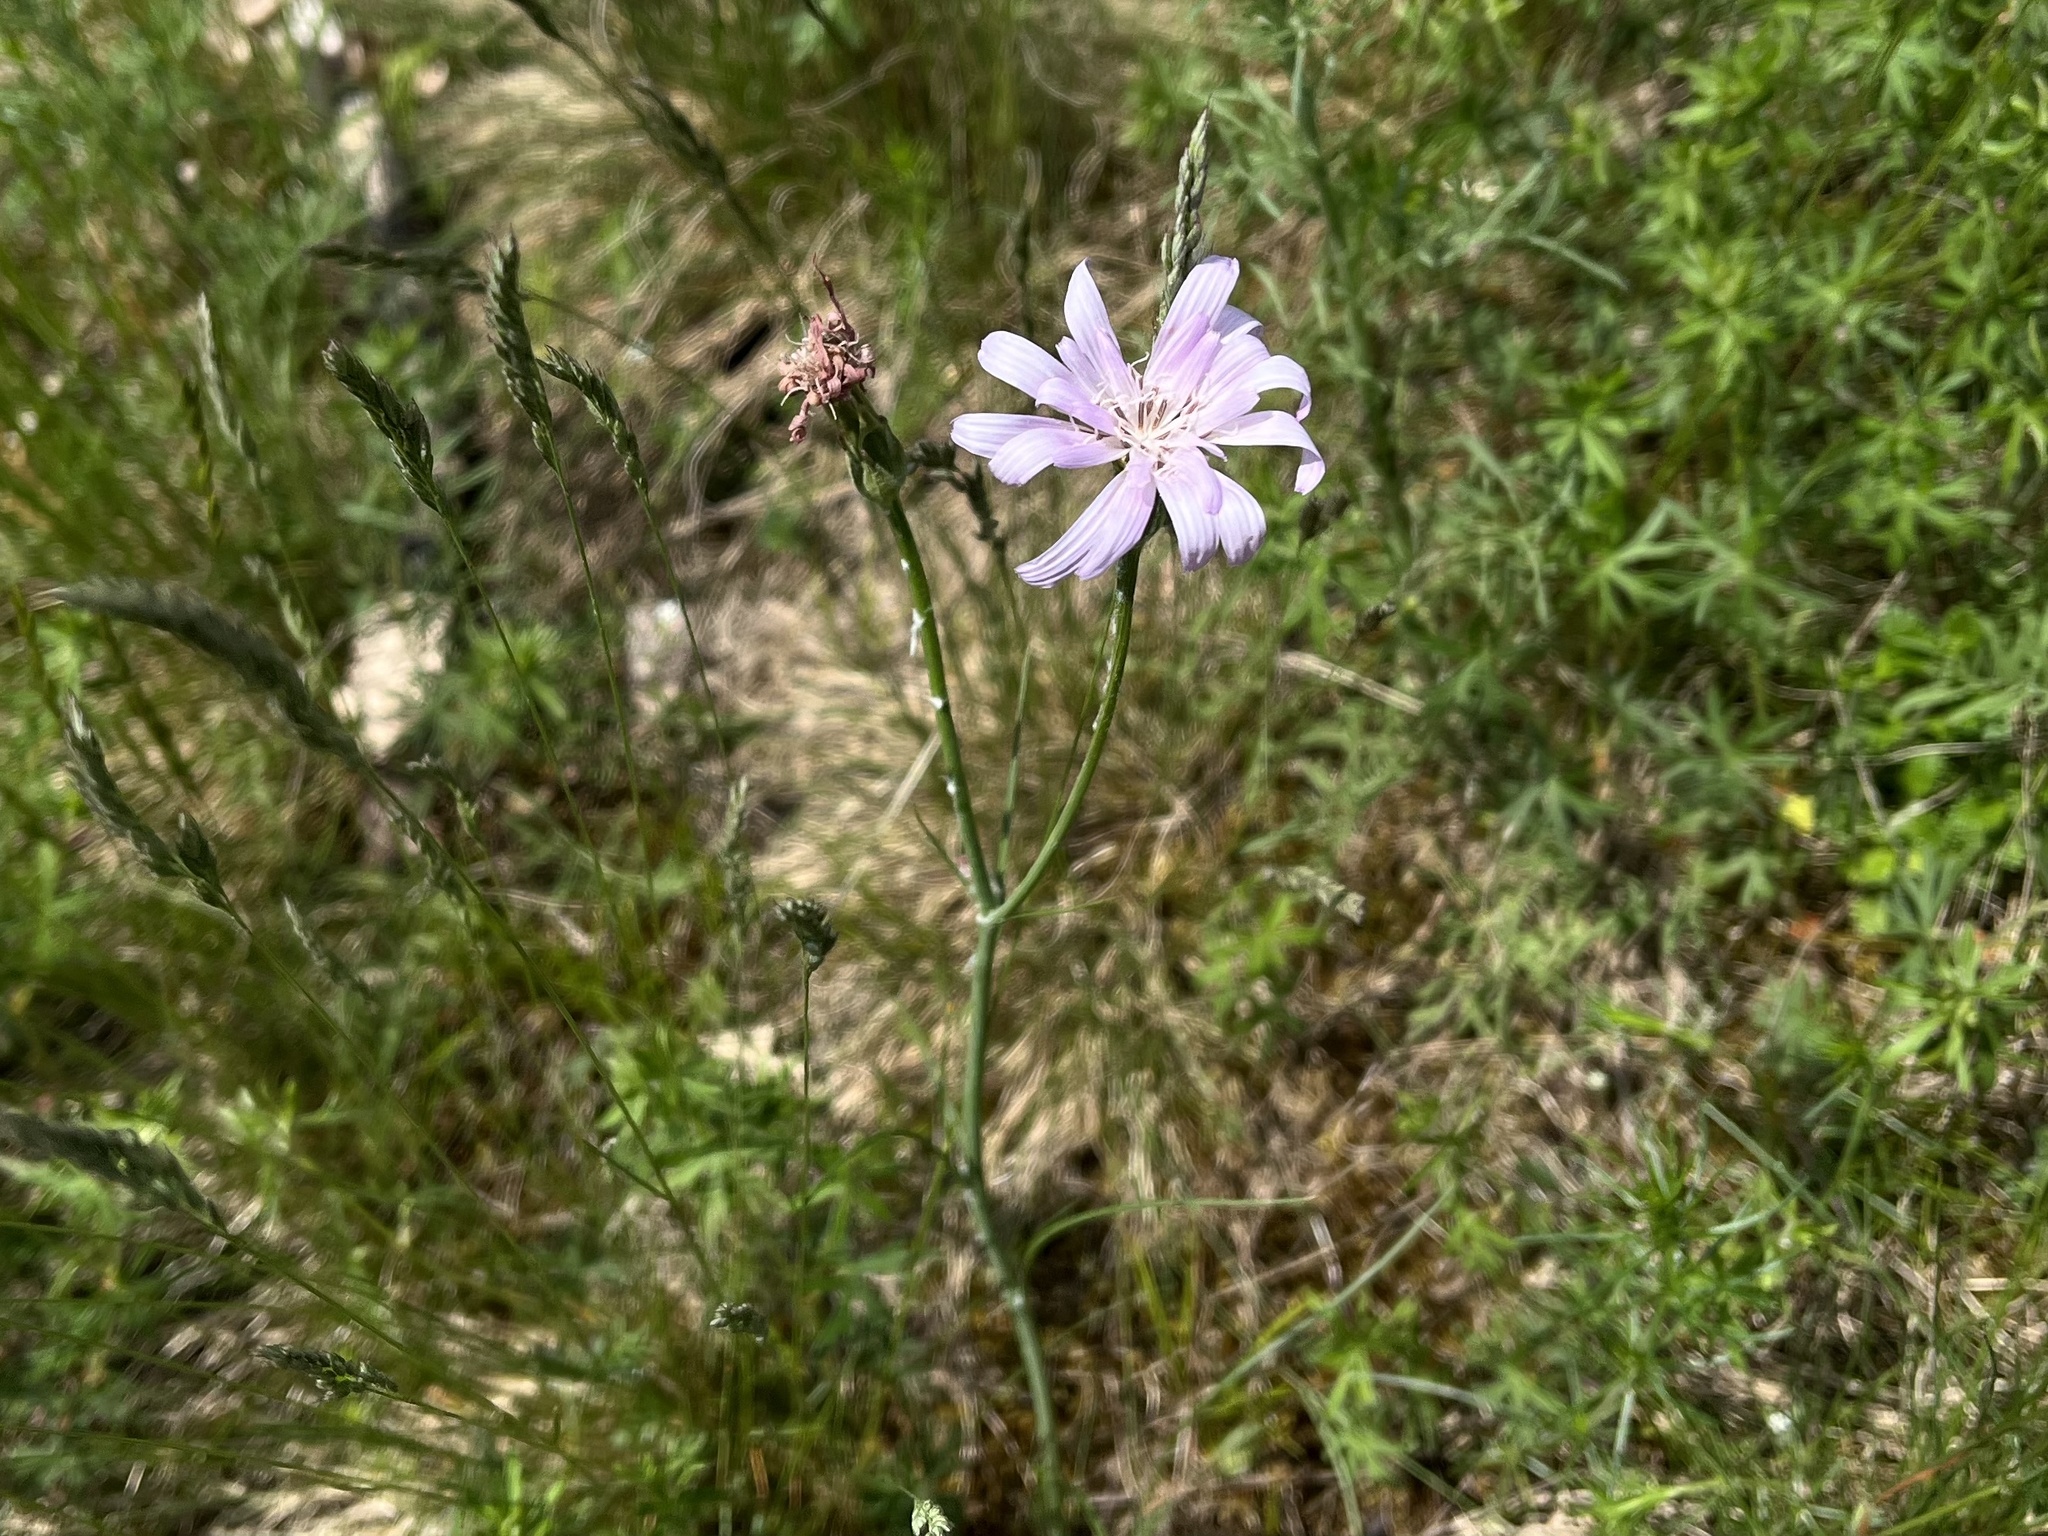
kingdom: Plantae
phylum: Tracheophyta
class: Magnoliopsida
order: Asterales
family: Asteraceae
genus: Lactuca
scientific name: Lactuca perennis
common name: Mountain lettuce
